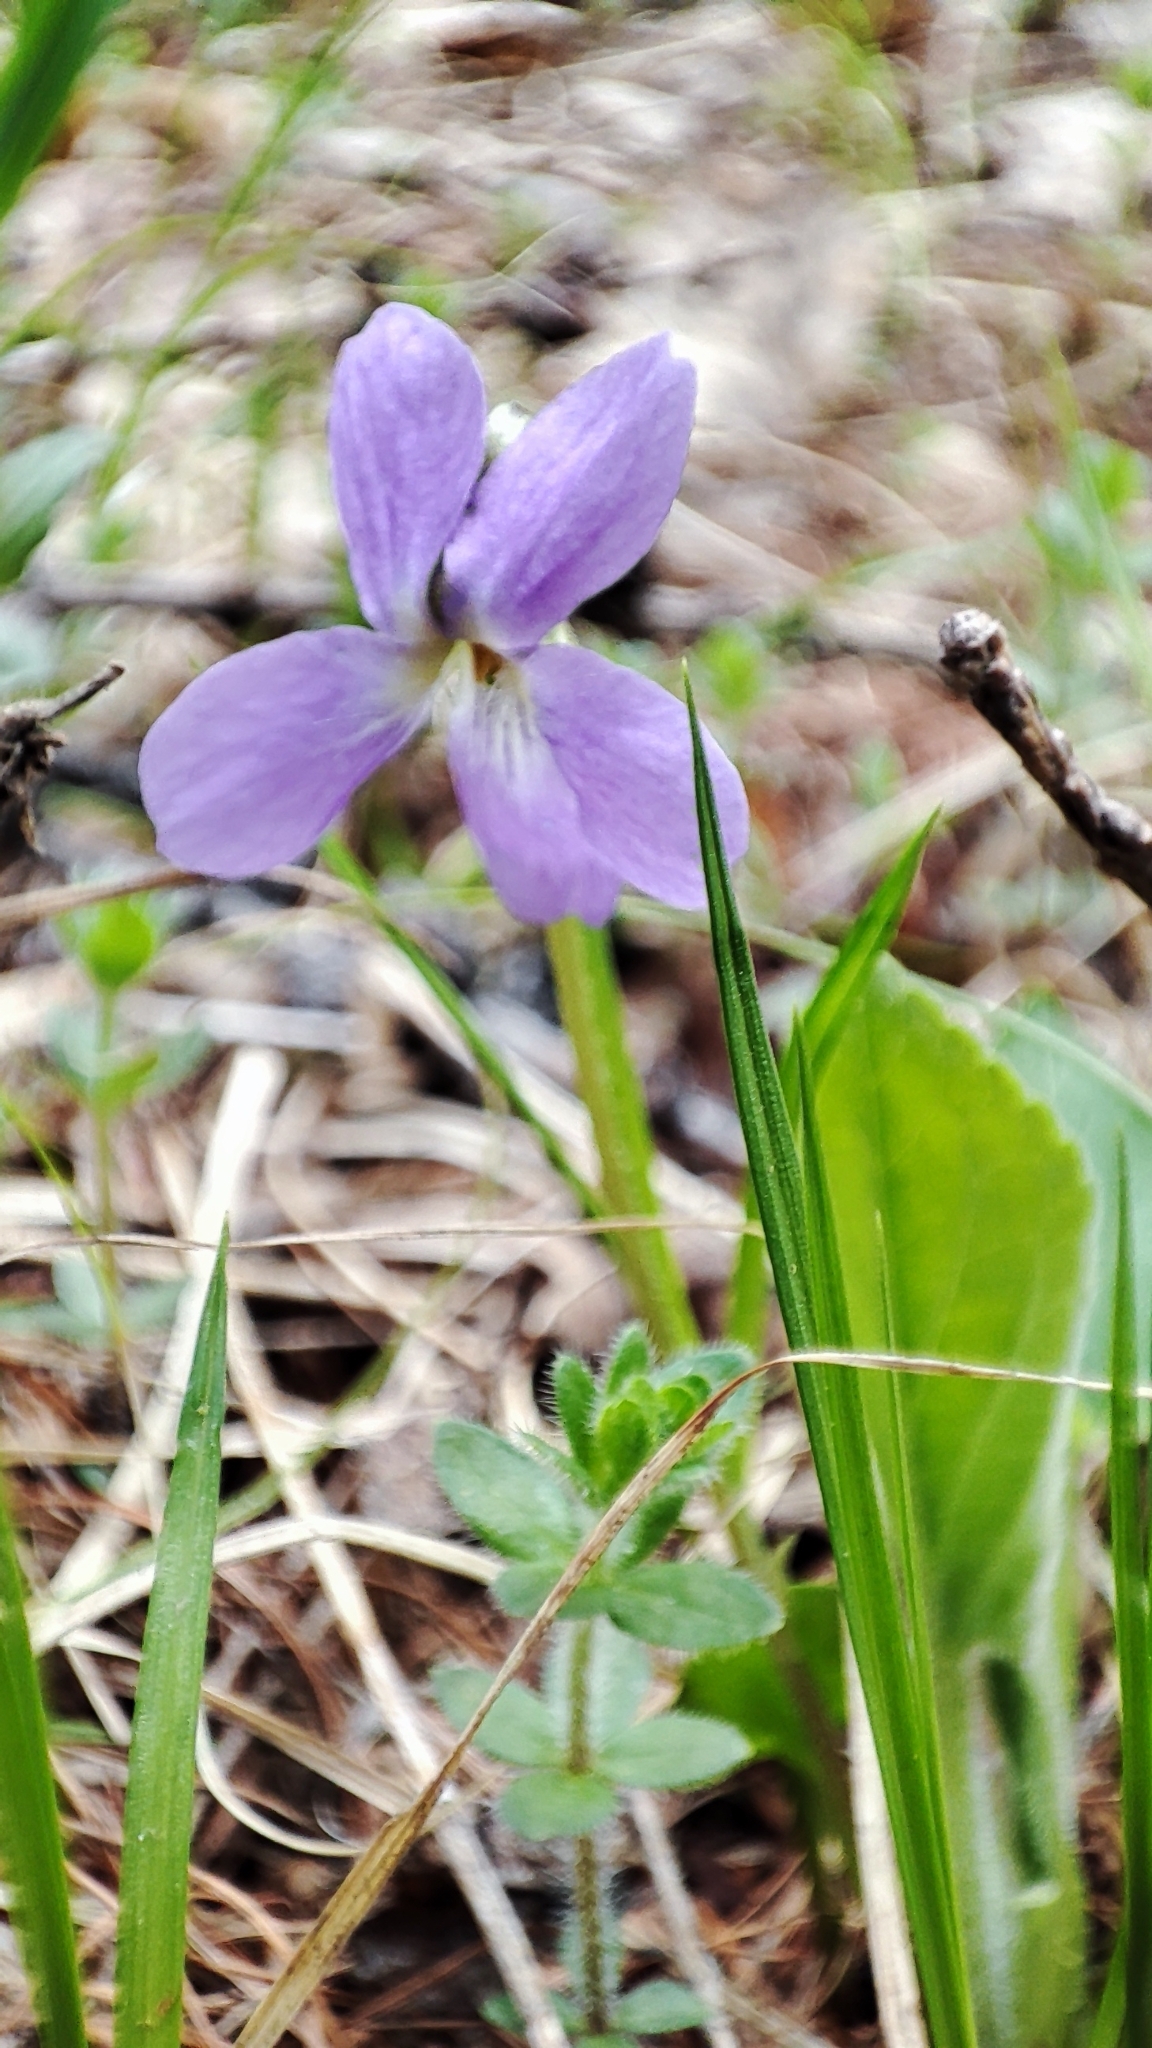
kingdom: Plantae
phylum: Tracheophyta
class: Magnoliopsida
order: Malpighiales
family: Violaceae
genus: Viola
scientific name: Viola hirta
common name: Hairy violet
